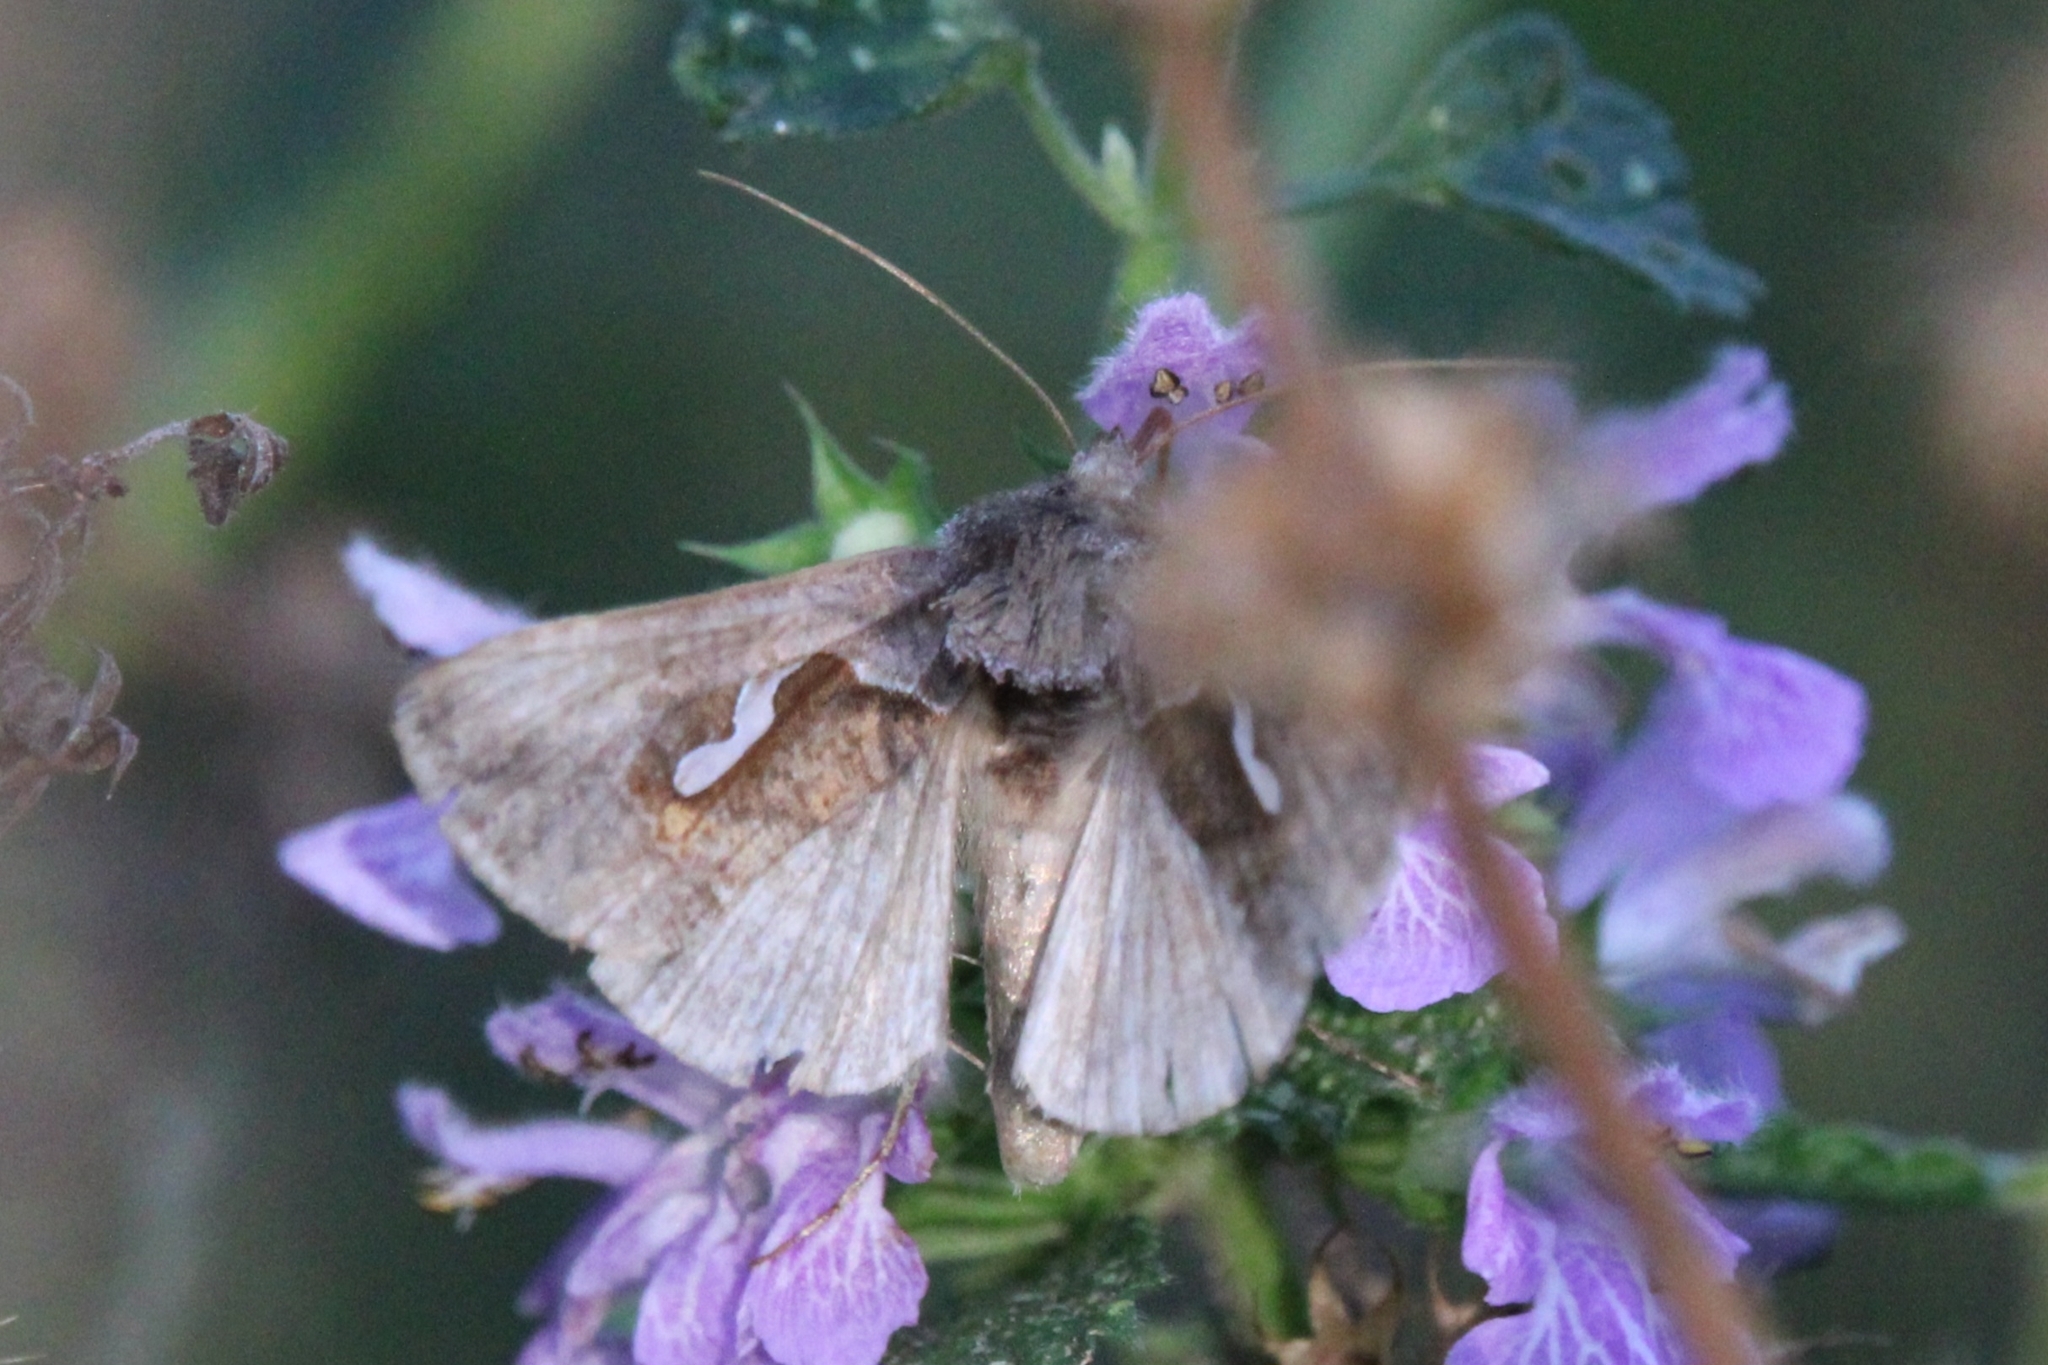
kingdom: Animalia
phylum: Arthropoda
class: Insecta
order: Lepidoptera
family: Noctuidae
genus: Macdunnoughia
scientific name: Macdunnoughia confusa
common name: Dewick's plusia
